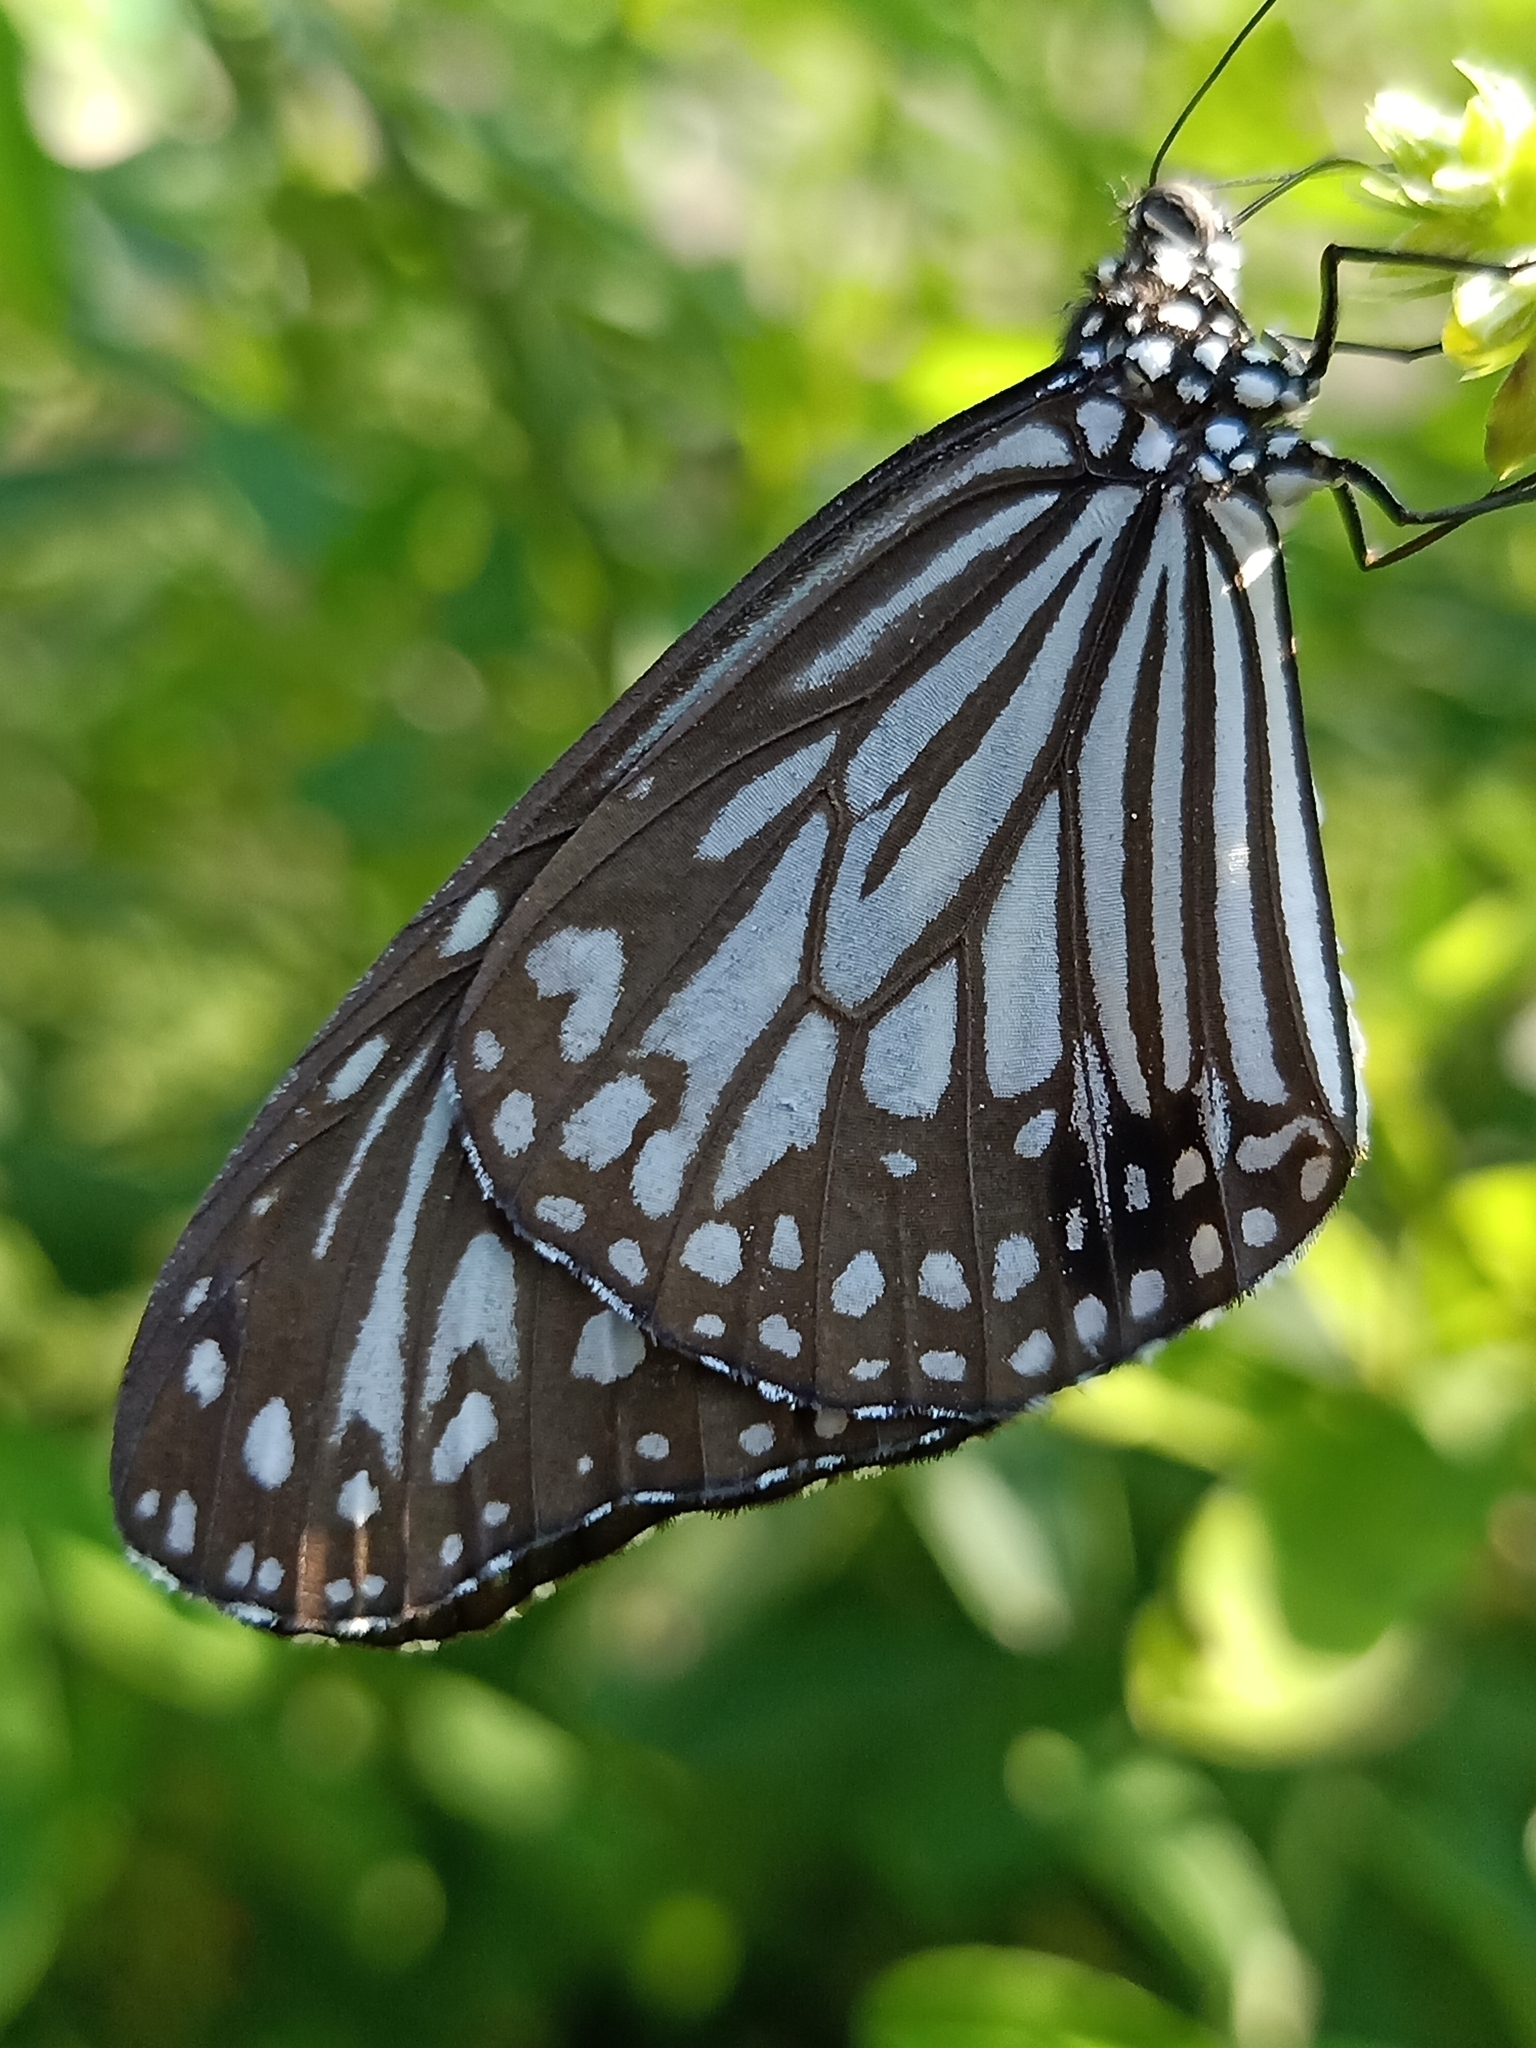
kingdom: Animalia
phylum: Arthropoda
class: Insecta
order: Lepidoptera
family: Nymphalidae
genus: Parantica
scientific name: Parantica aglea
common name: Glassy tiger
